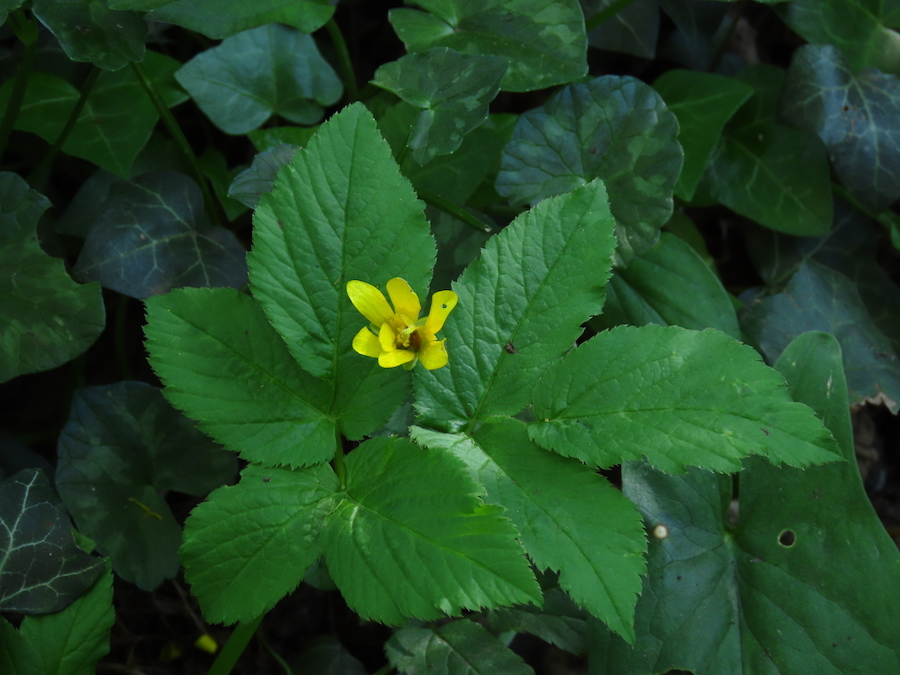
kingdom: Plantae
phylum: Tracheophyta
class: Magnoliopsida
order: Ranunculales
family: Ranunculaceae
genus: Ficaria
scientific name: Ficaria verna
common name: Lesser celandine
